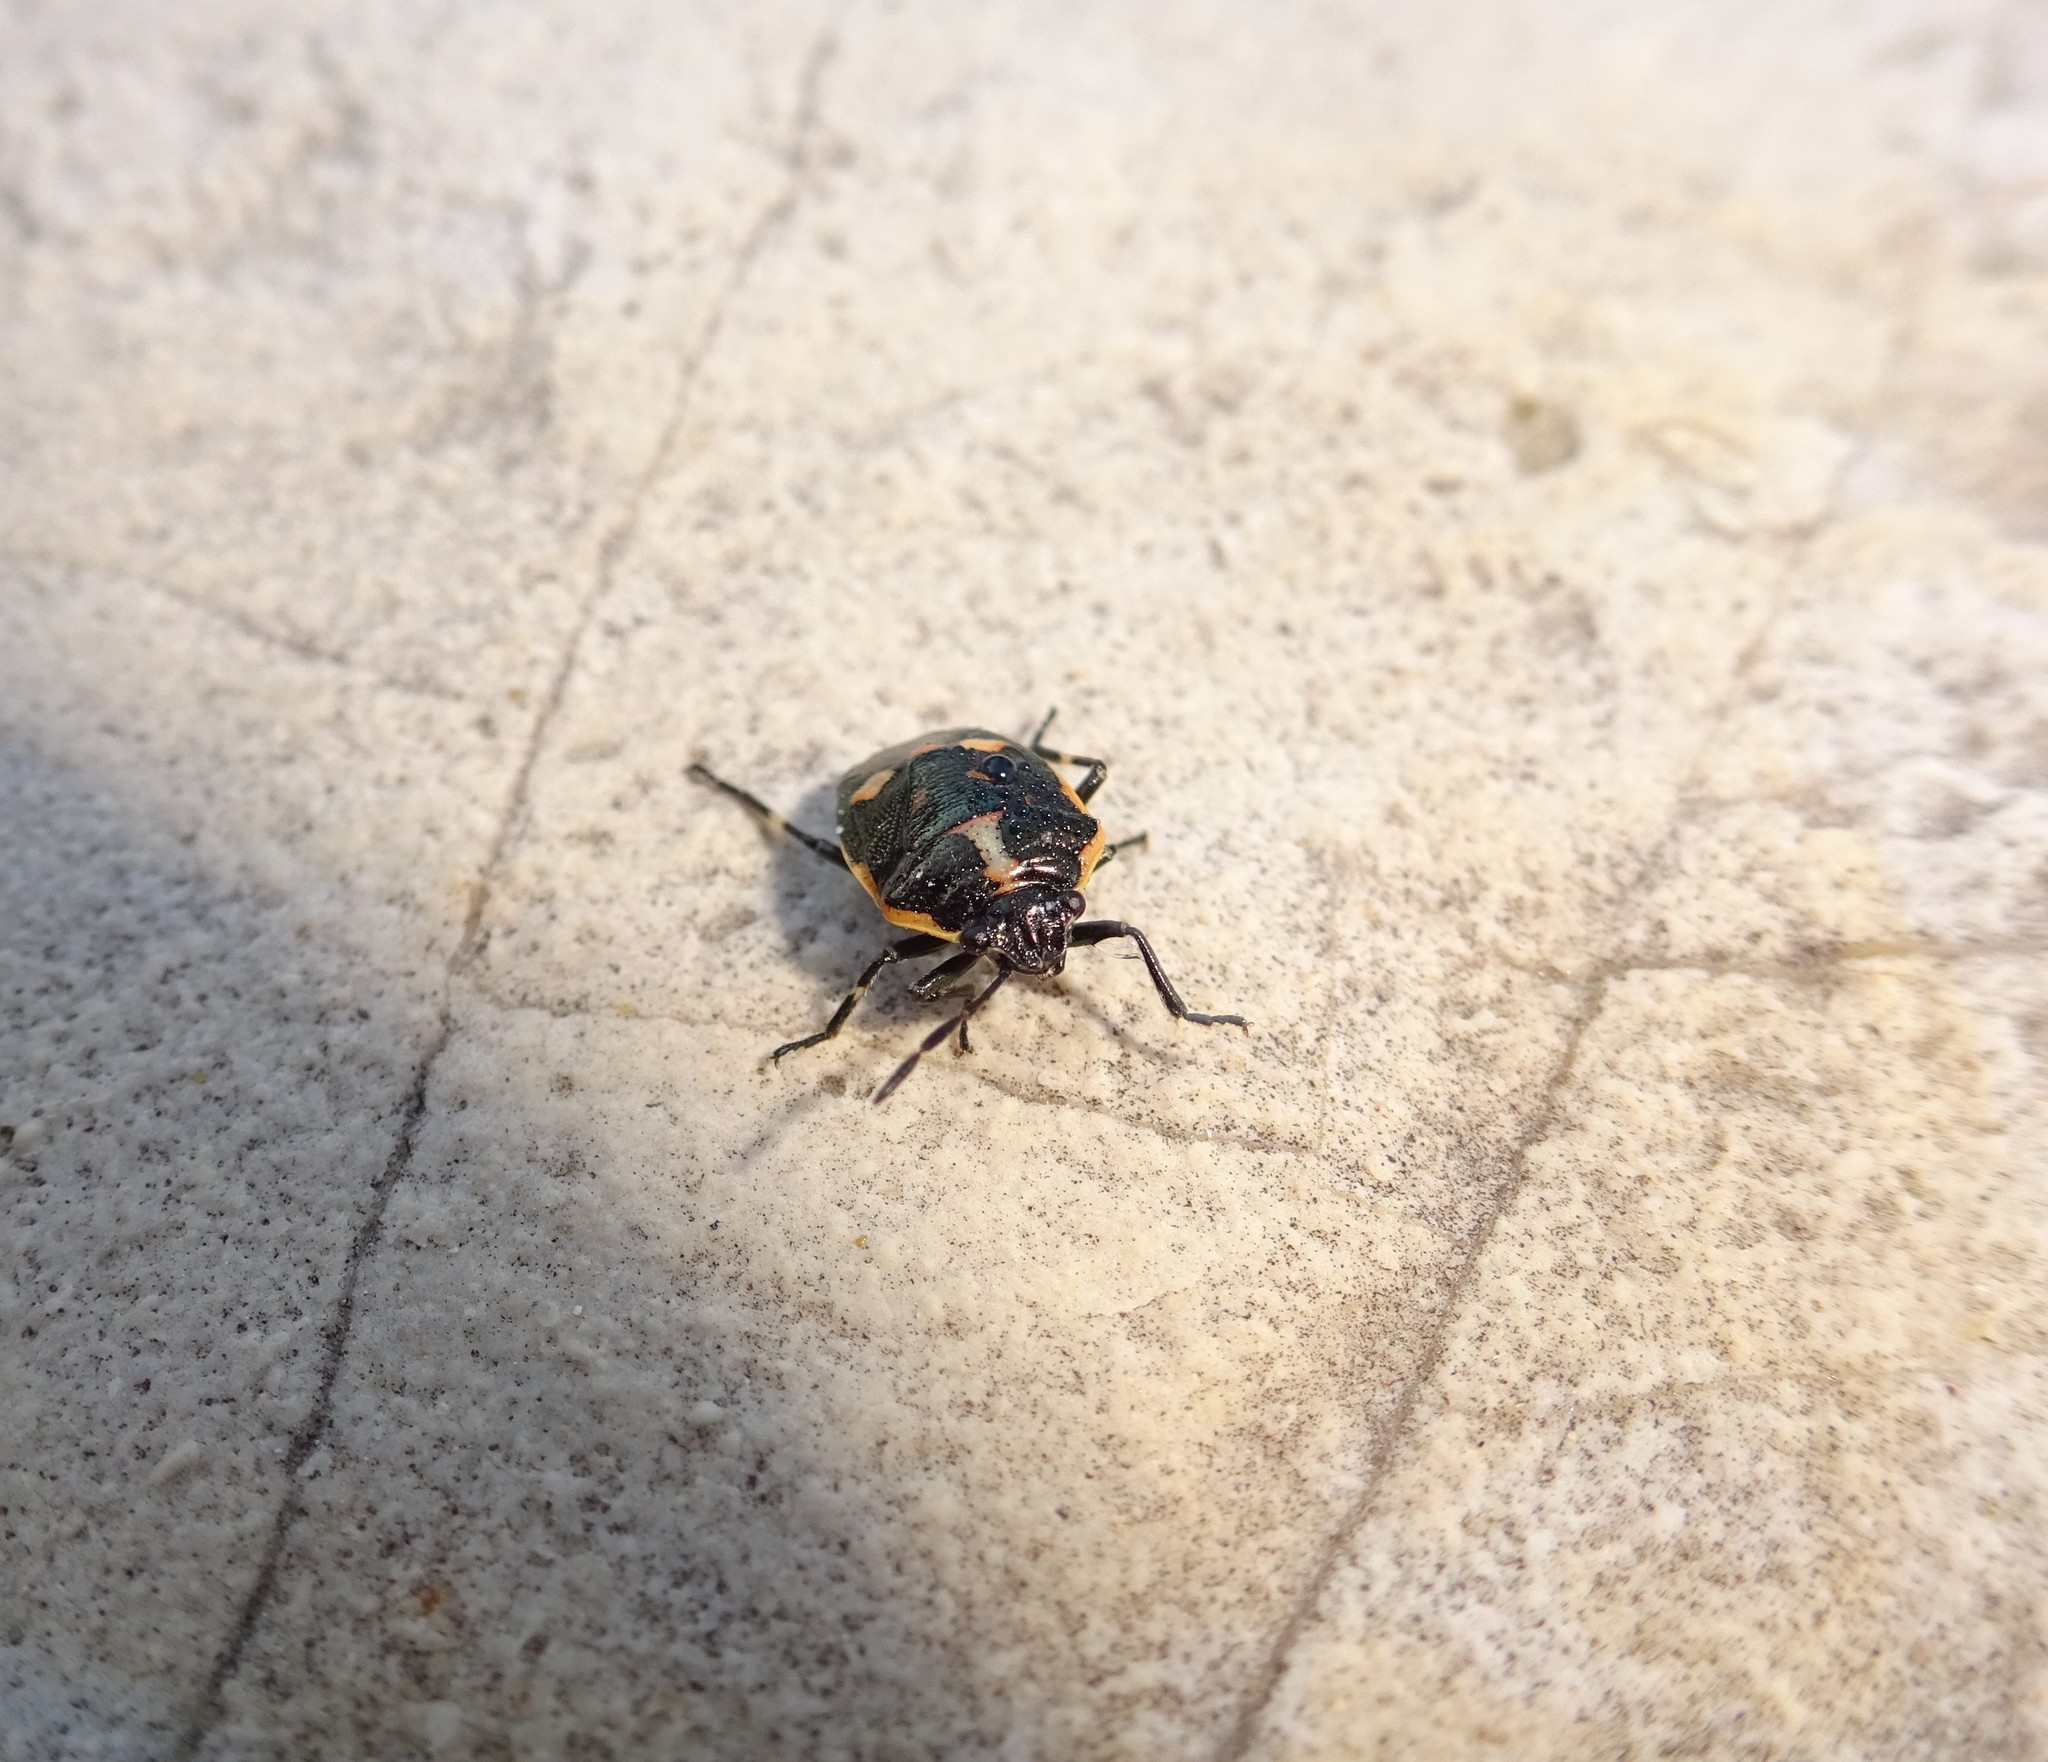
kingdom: Animalia
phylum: Arthropoda
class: Insecta
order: Hemiptera
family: Pentatomidae
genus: Eurydema
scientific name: Eurydema oleracea
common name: Cabbage bug
